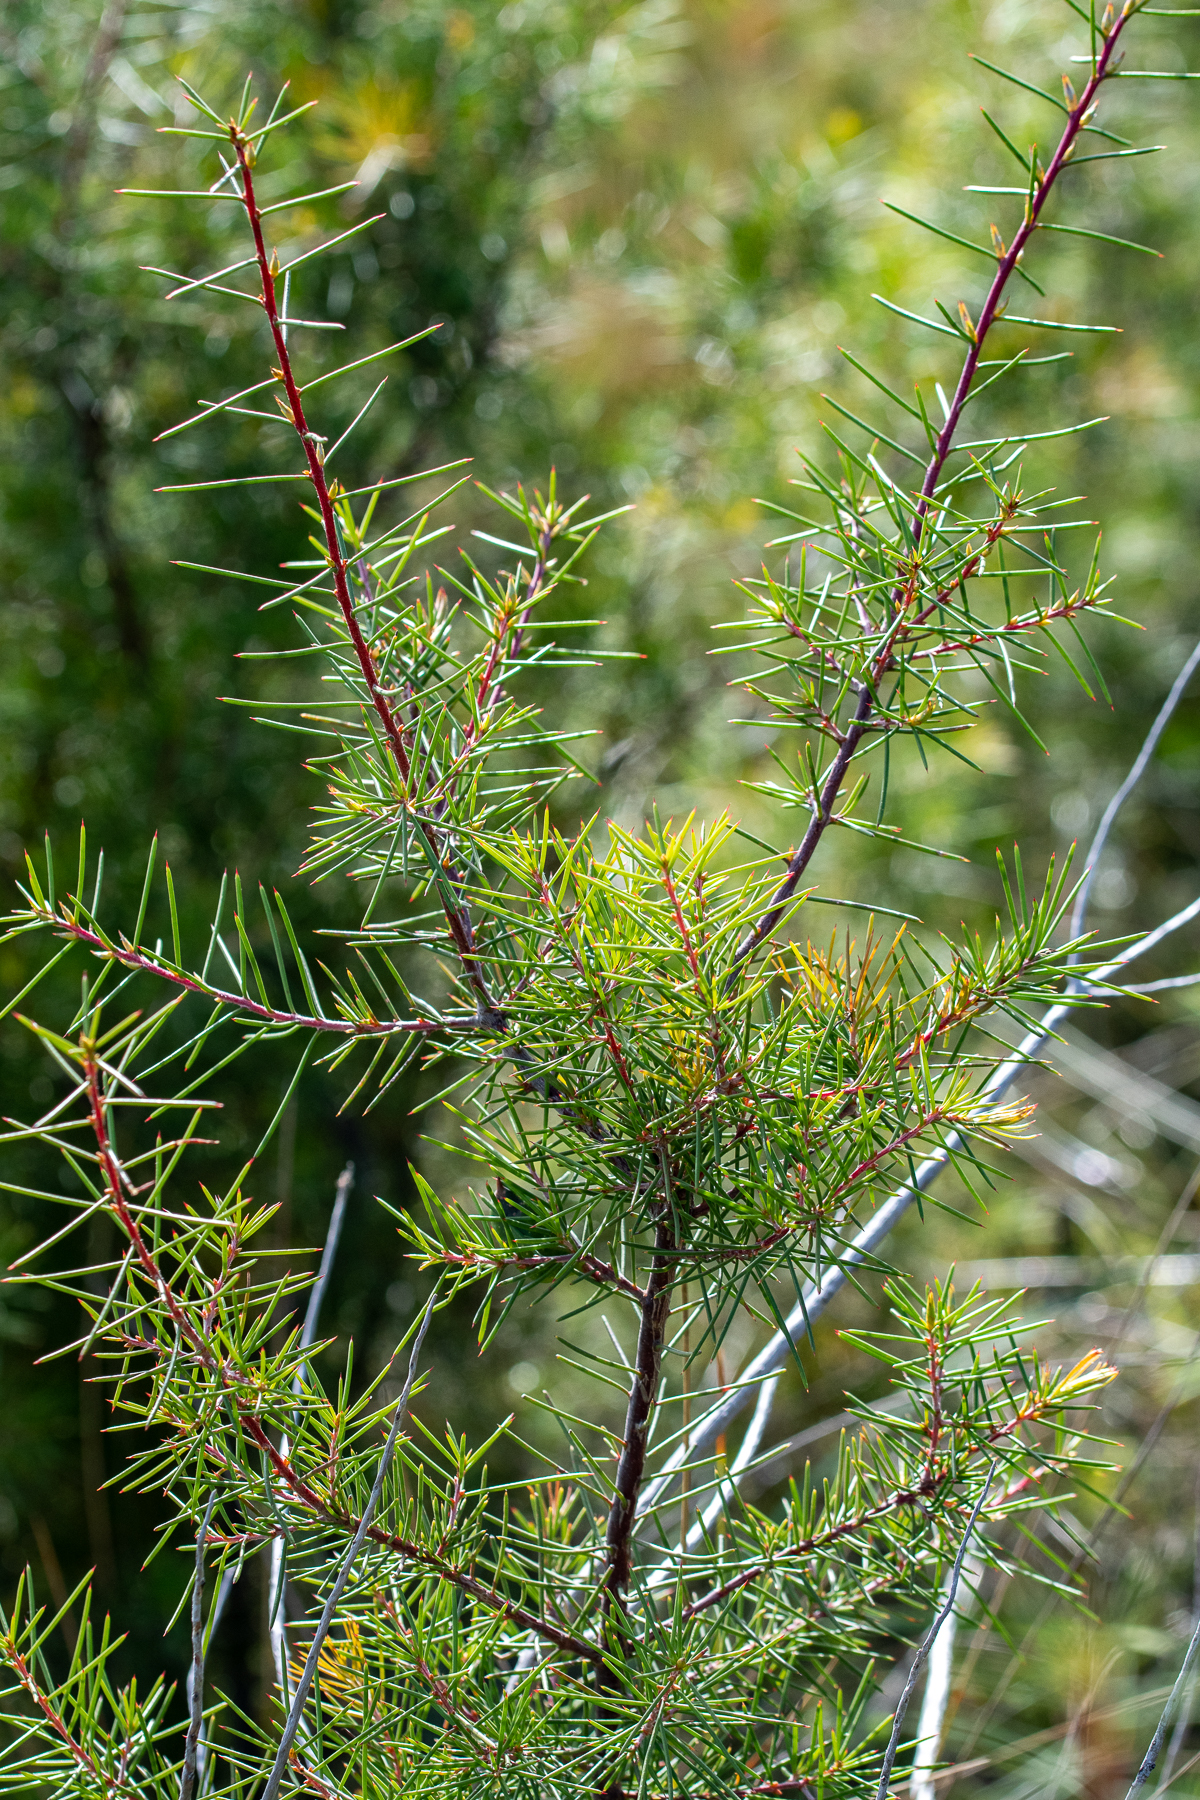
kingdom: Plantae
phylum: Tracheophyta
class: Magnoliopsida
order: Proteales
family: Proteaceae
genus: Hakea
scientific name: Hakea sericea
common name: Needle bush
